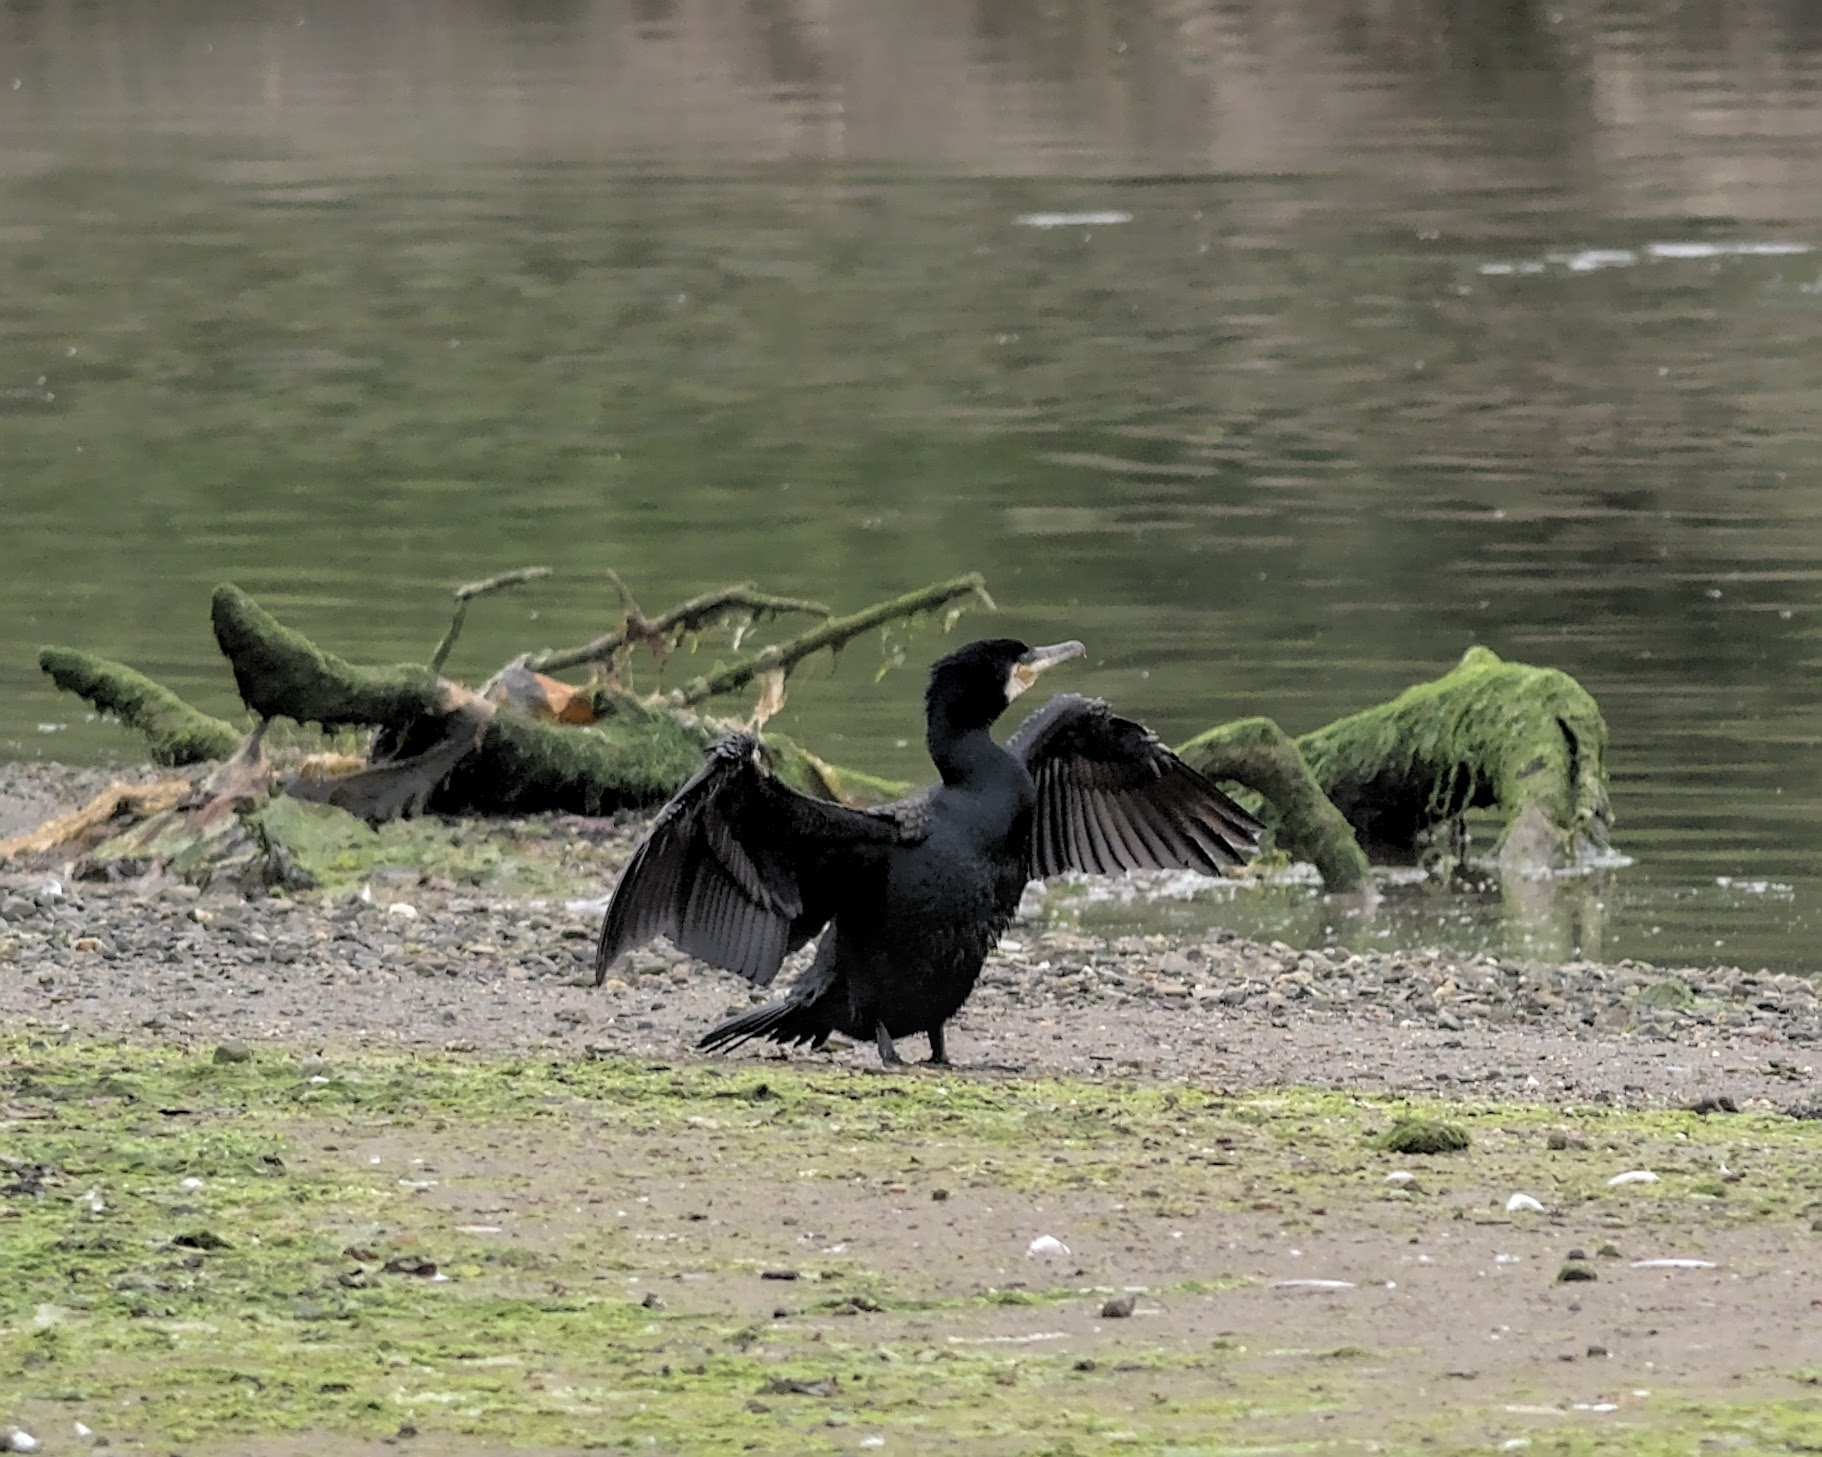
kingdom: Animalia
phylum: Chordata
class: Aves
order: Suliformes
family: Phalacrocoracidae
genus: Phalacrocorax
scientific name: Phalacrocorax carbo
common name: Great cormorant
